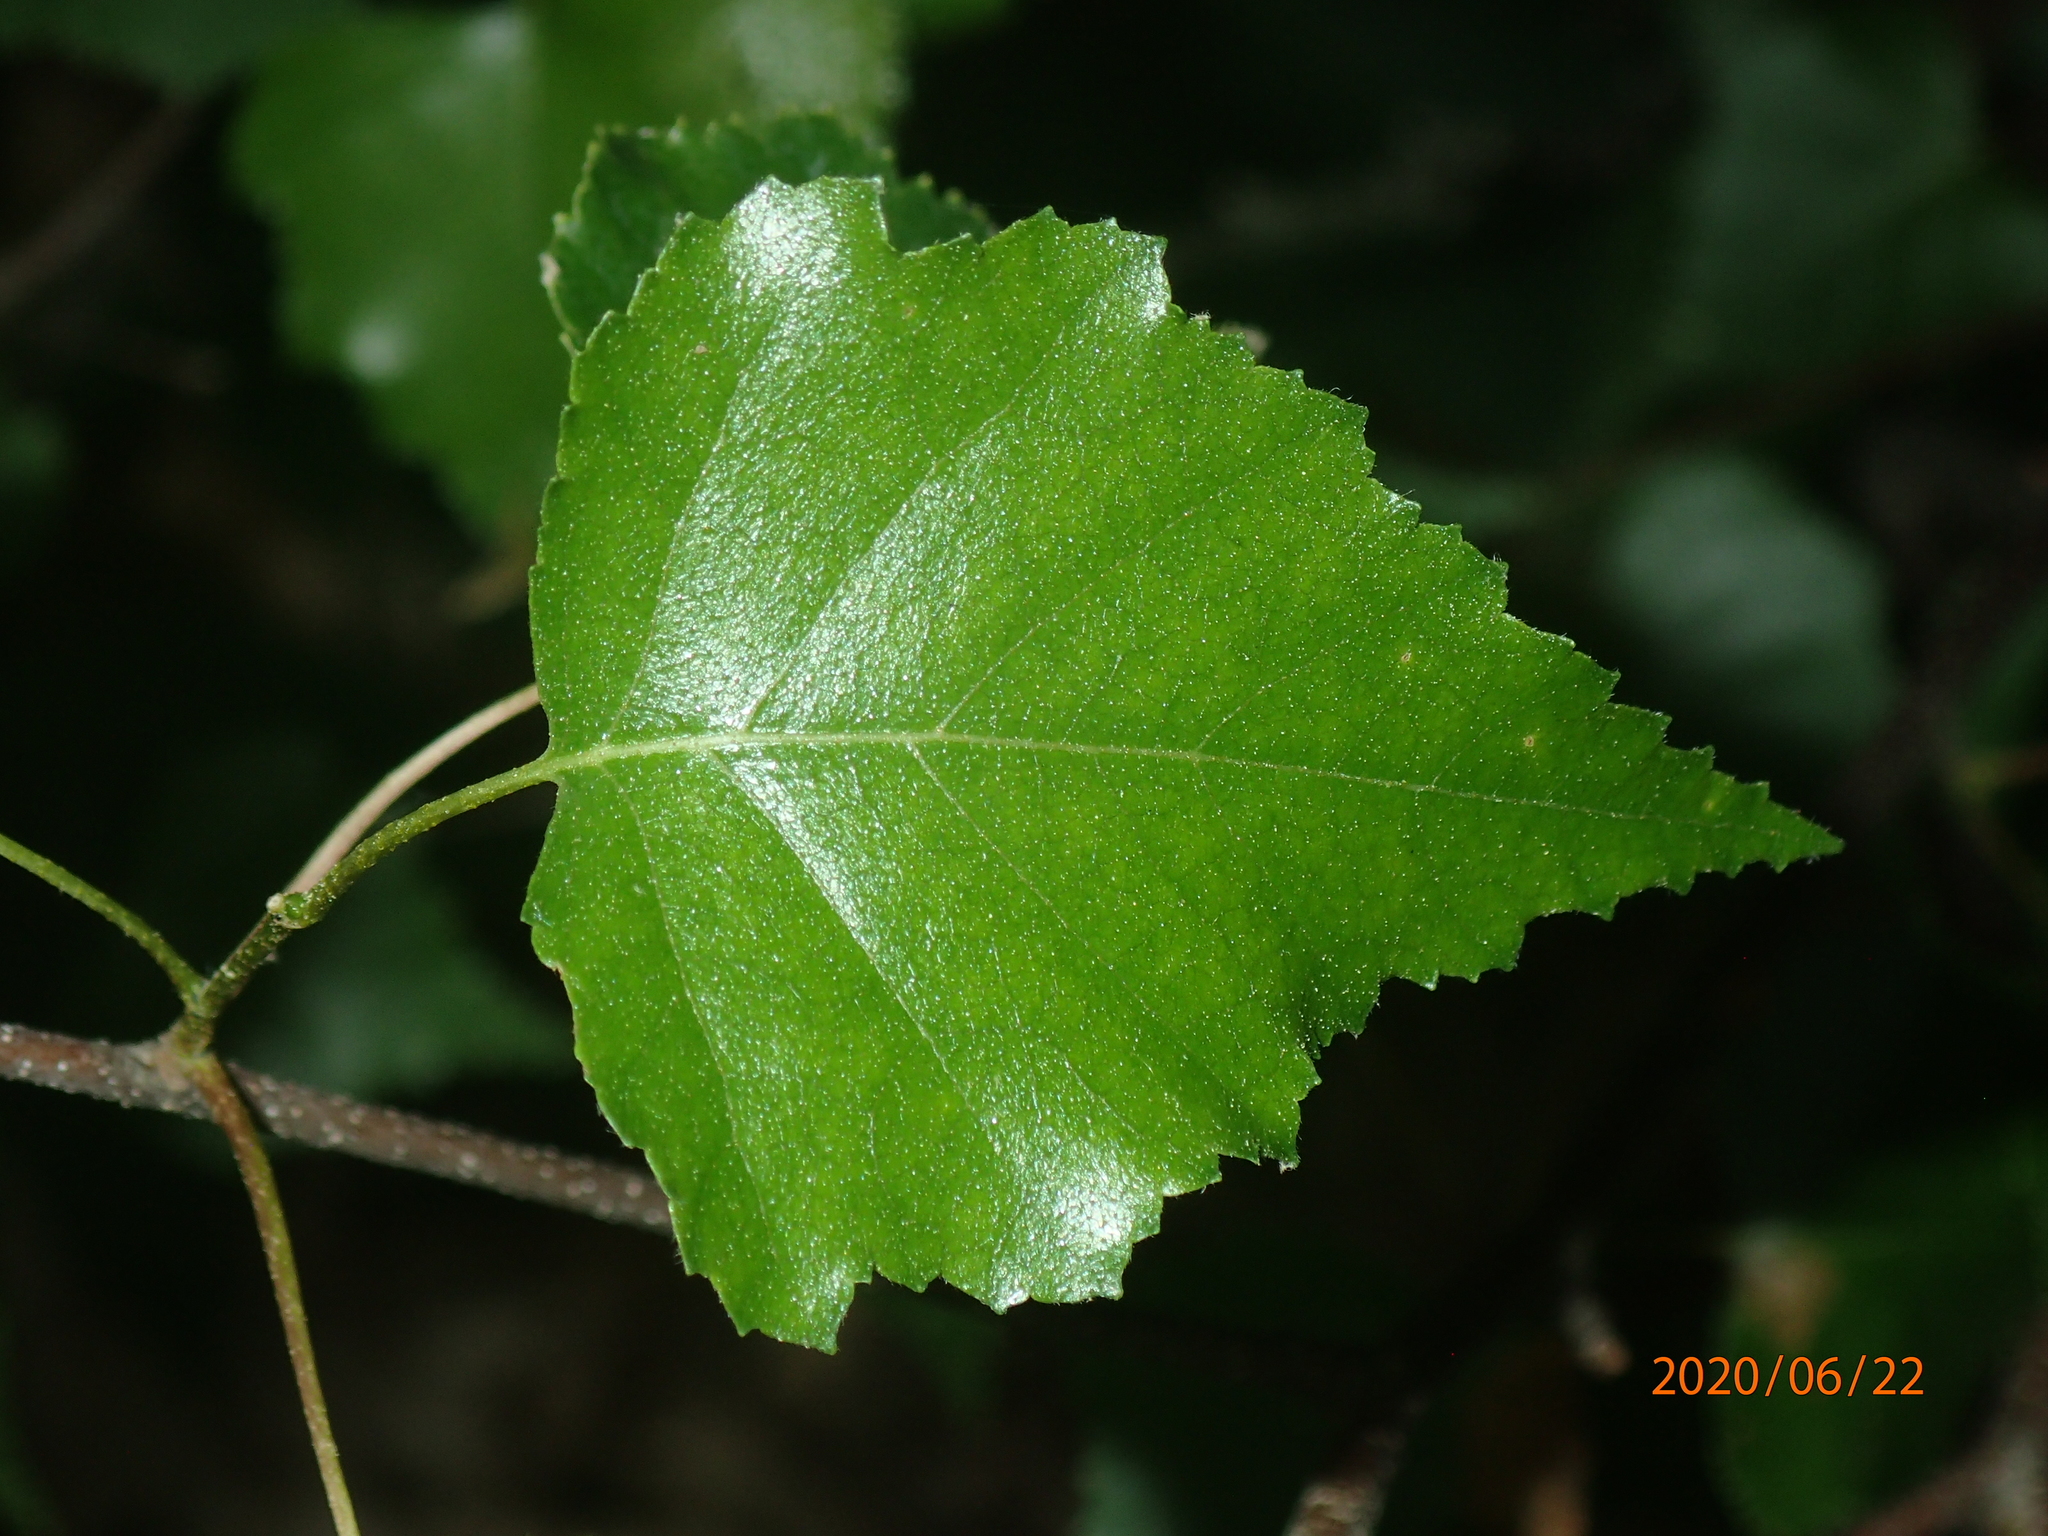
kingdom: Plantae
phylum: Tracheophyta
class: Magnoliopsida
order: Fagales
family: Betulaceae
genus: Betula
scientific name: Betula populifolia
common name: Fire birch
